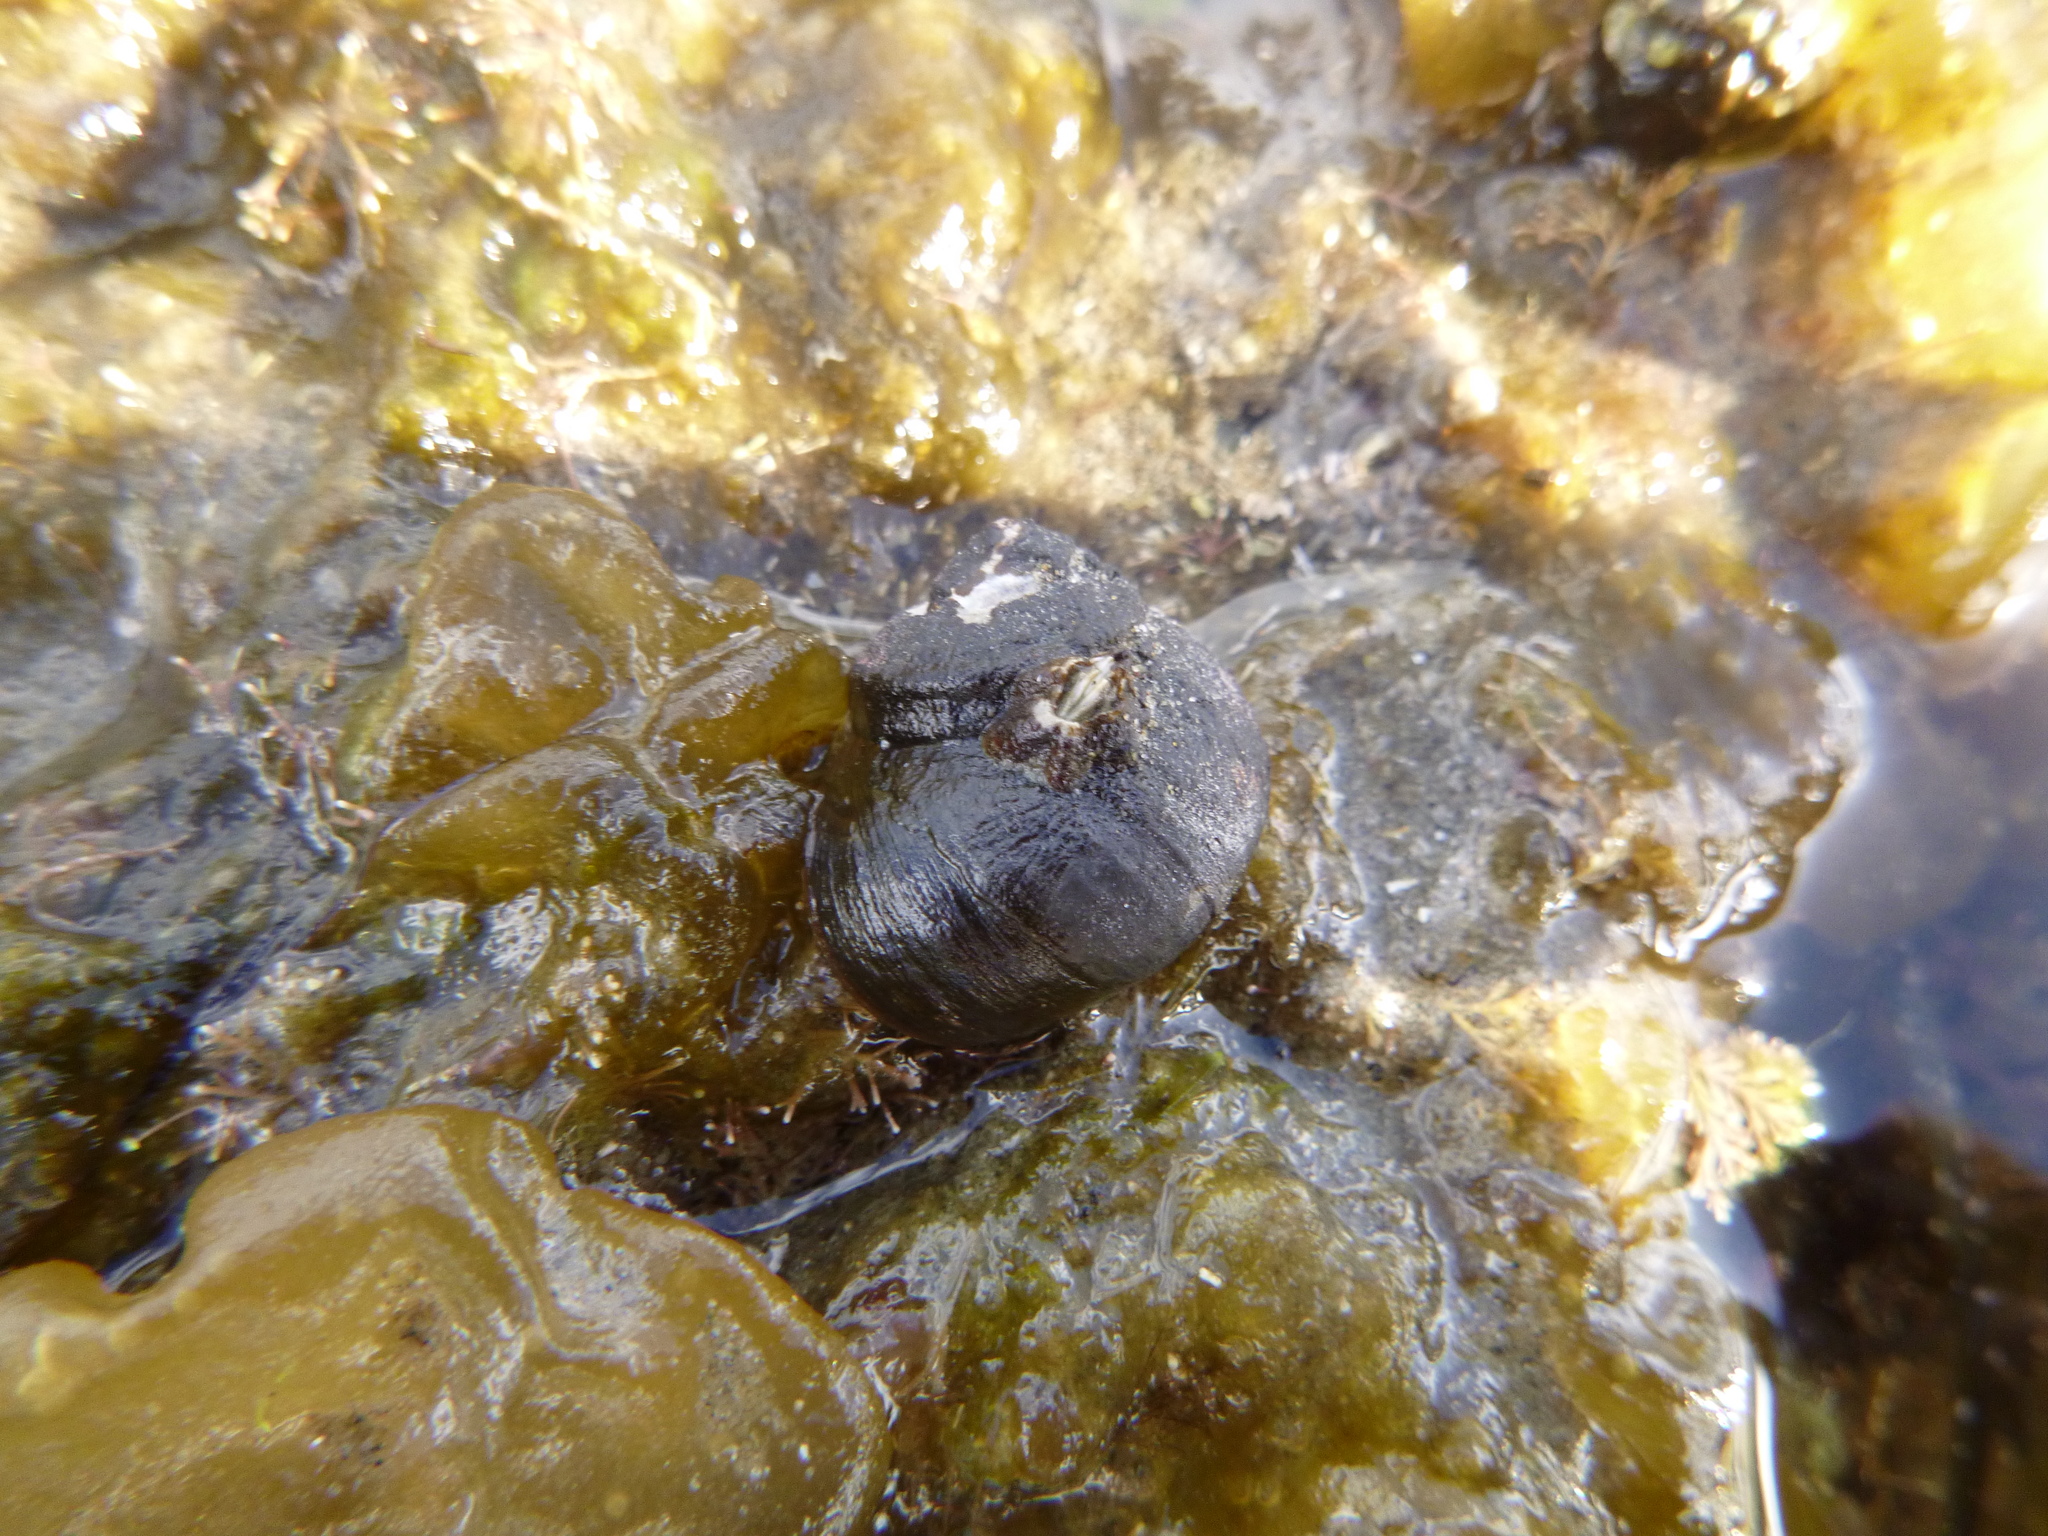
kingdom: Animalia
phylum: Mollusca
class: Gastropoda
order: Trochida
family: Turbinidae
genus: Lunella
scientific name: Lunella smaragda
